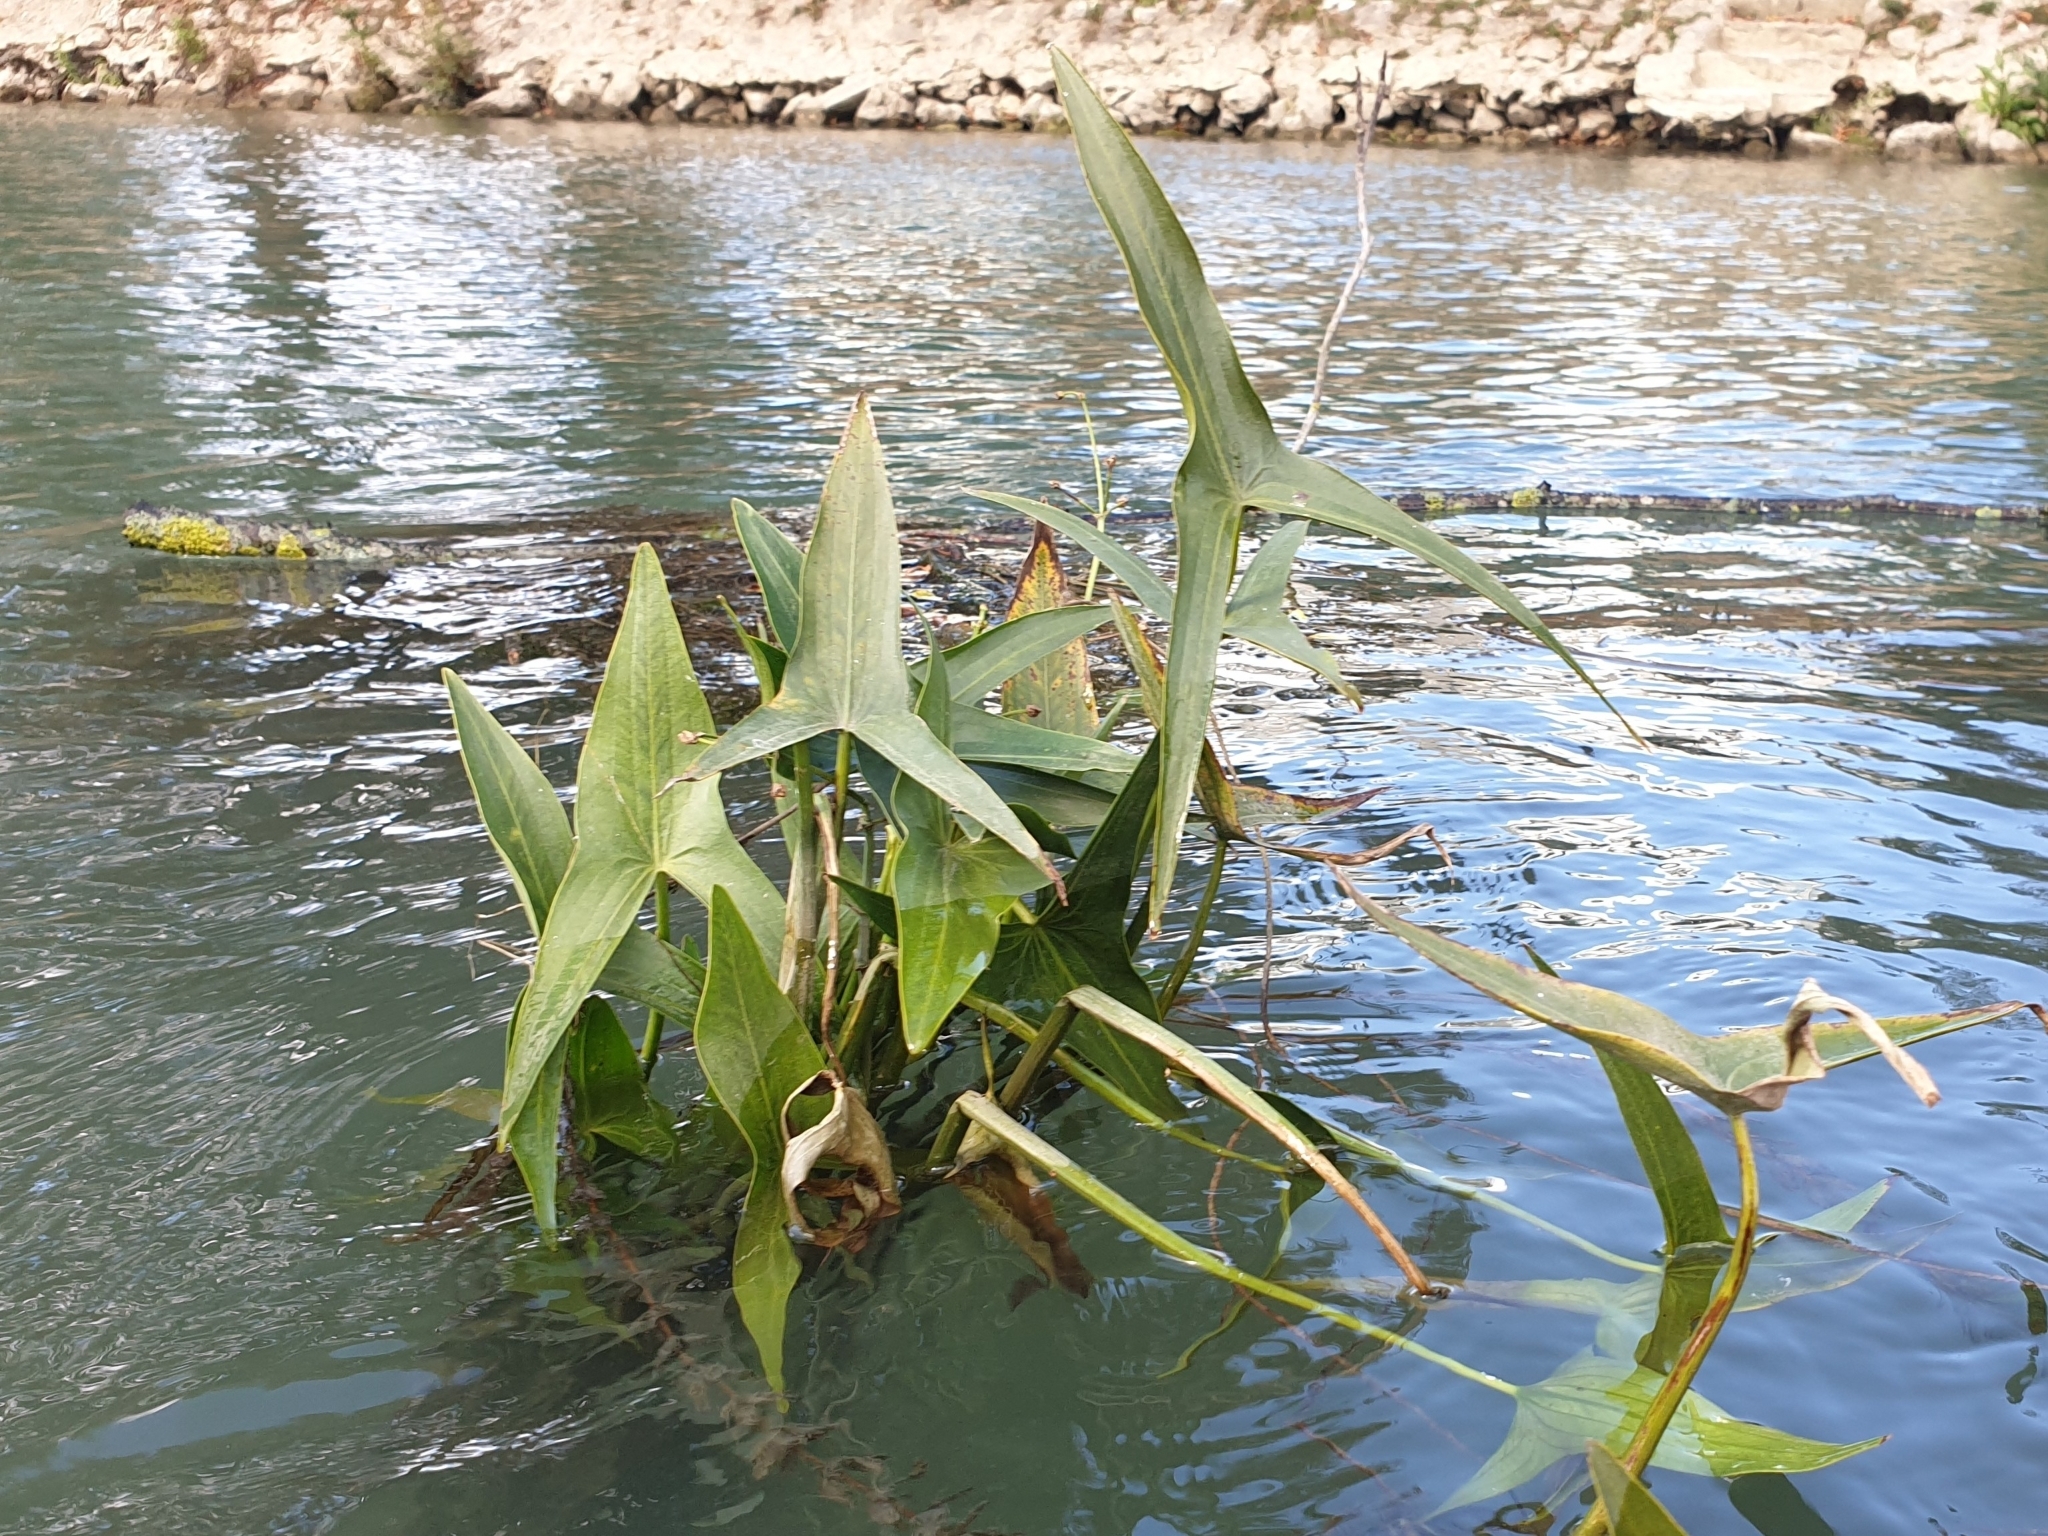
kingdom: Plantae
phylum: Tracheophyta
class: Liliopsida
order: Alismatales
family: Alismataceae
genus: Sagittaria
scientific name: Sagittaria sagittifolia
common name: Arrowhead
